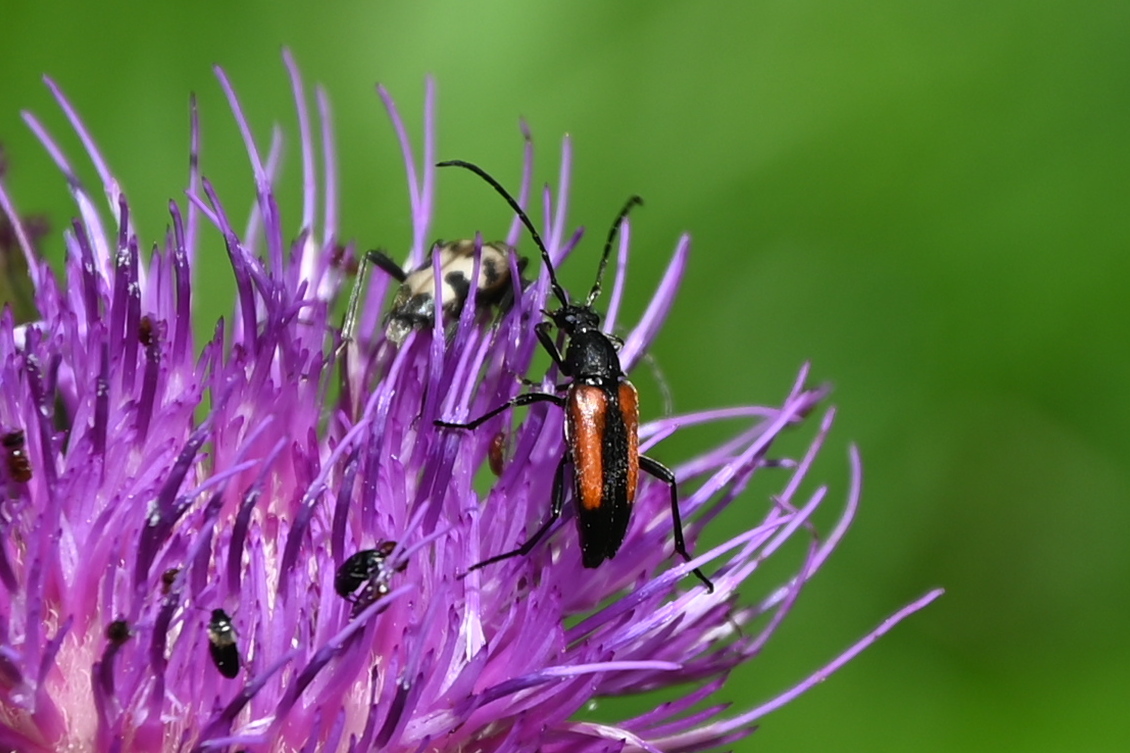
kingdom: Animalia
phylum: Arthropoda
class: Insecta
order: Coleoptera
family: Cerambycidae
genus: Stenurella
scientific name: Stenurella melanura
